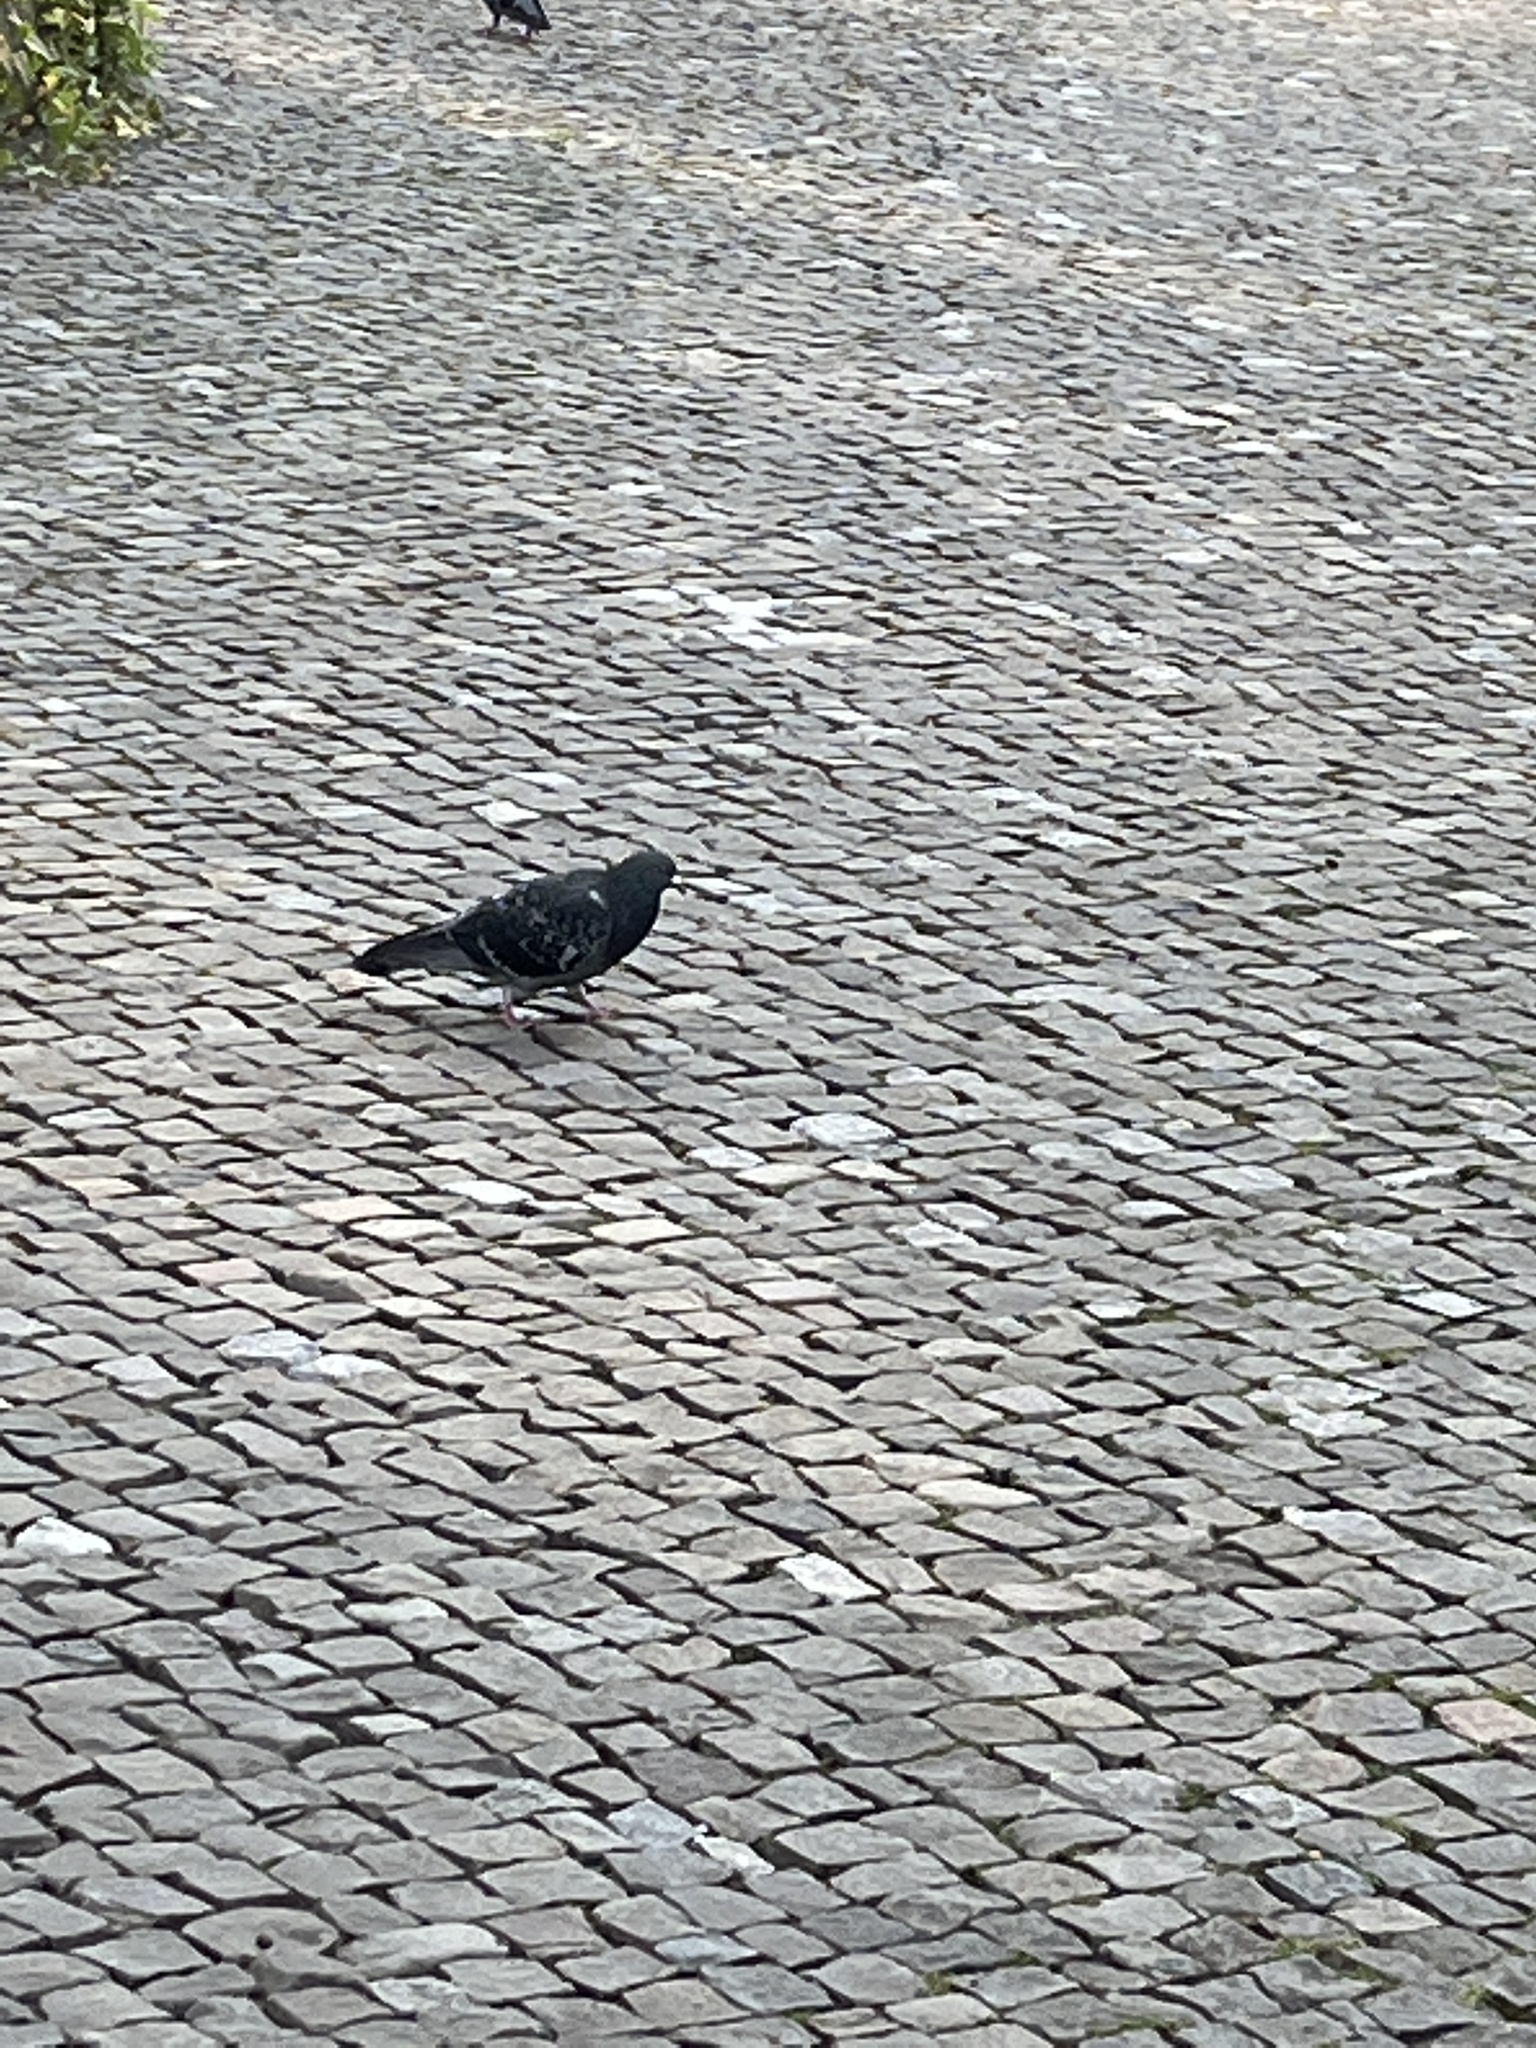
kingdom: Animalia
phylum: Chordata
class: Aves
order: Columbiformes
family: Columbidae
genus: Columba
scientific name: Columba livia
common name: Rock pigeon
